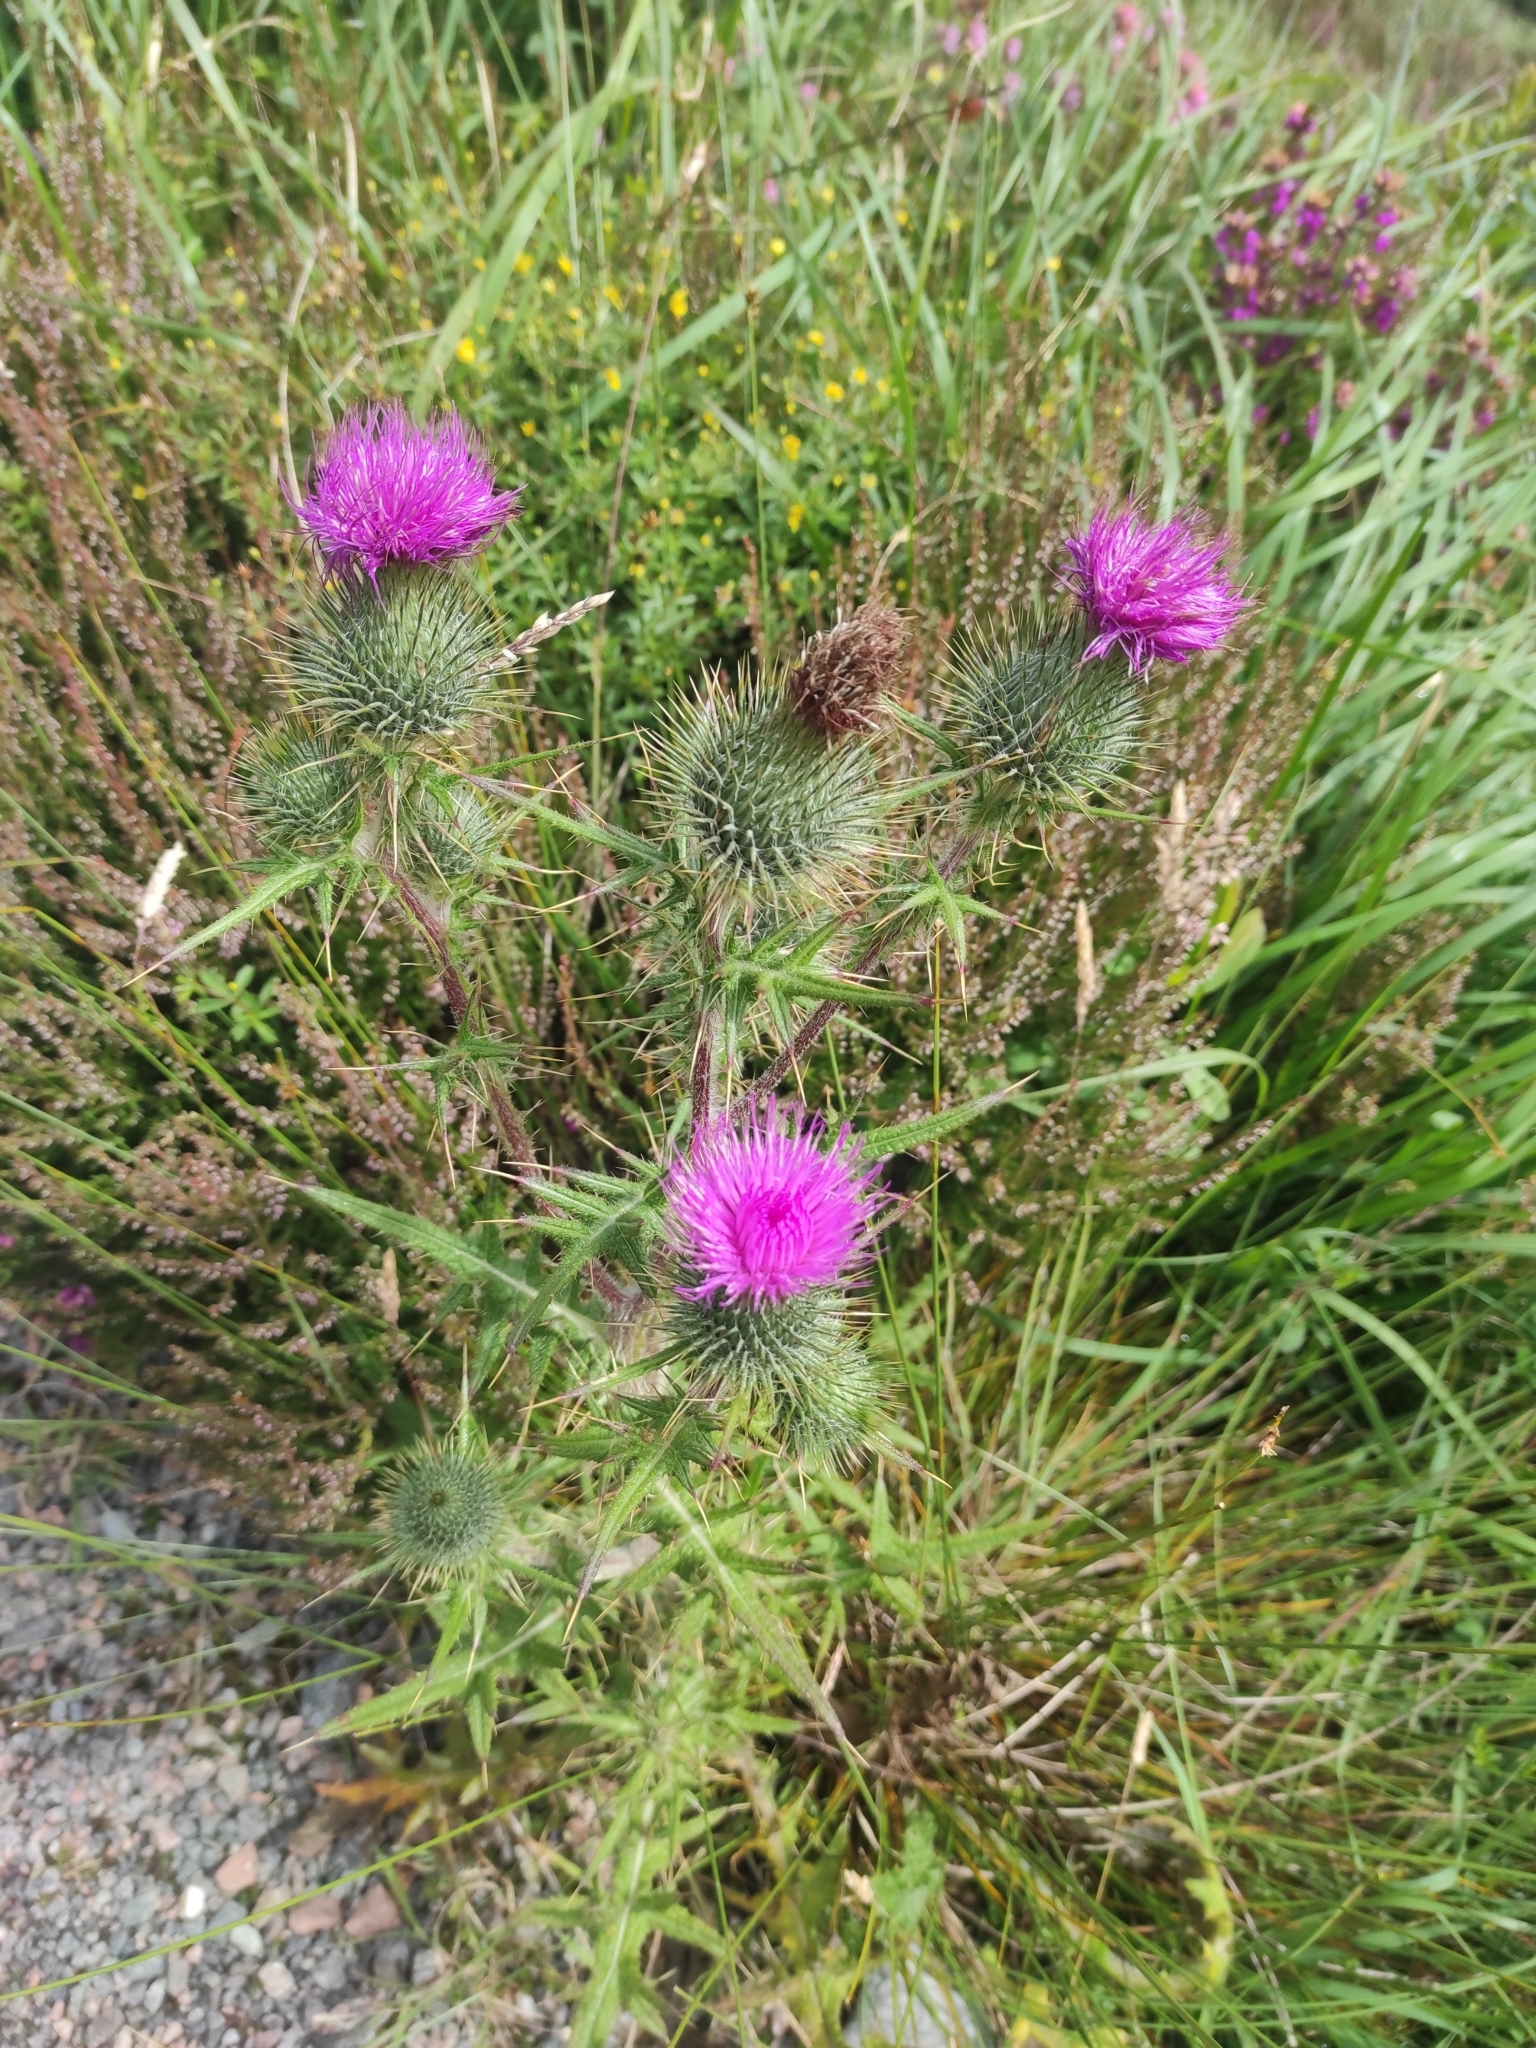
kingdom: Plantae
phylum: Tracheophyta
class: Magnoliopsida
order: Asterales
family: Asteraceae
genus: Cirsium
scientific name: Cirsium vulgare
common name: Bull thistle
